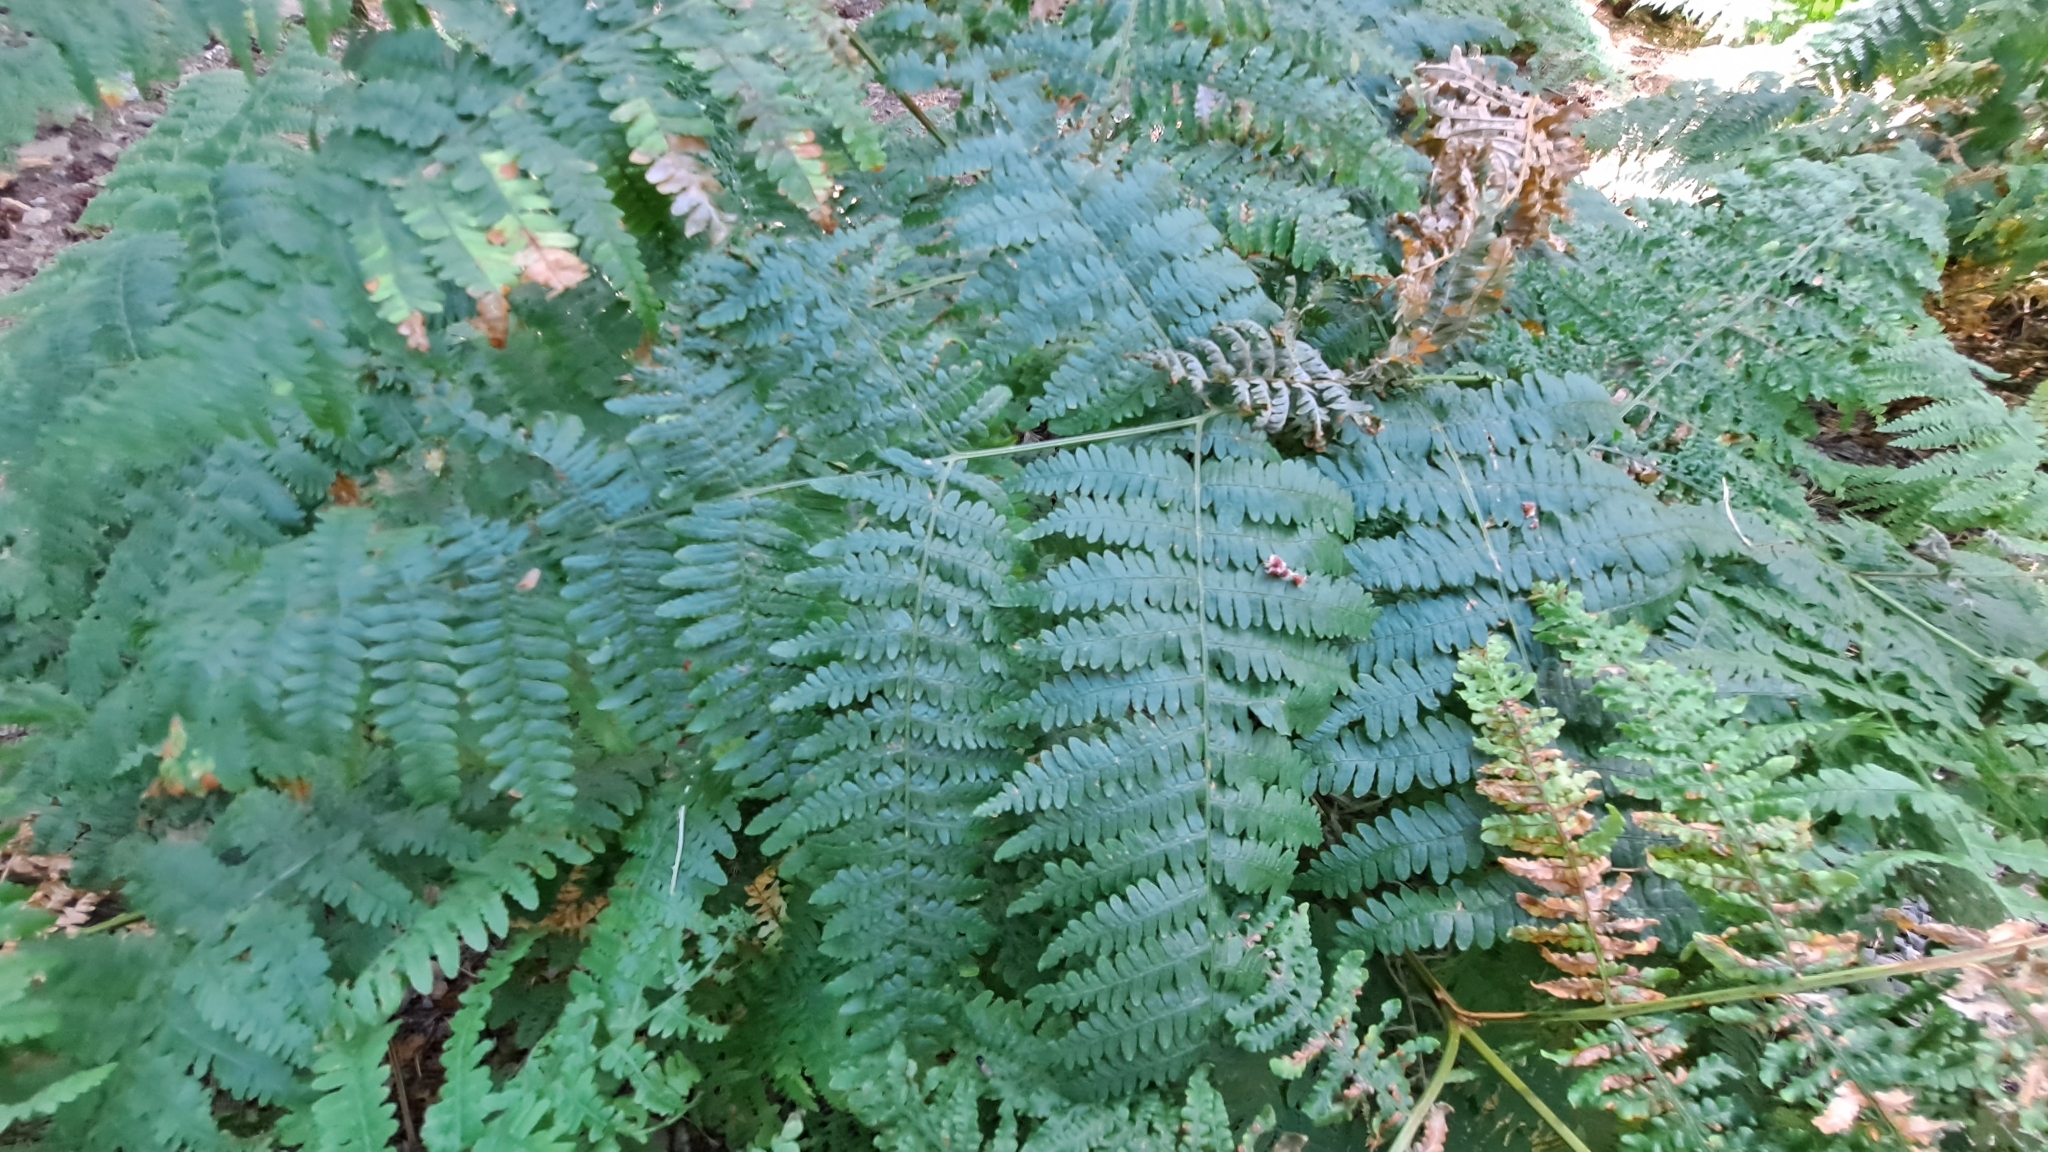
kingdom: Plantae
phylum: Tracheophyta
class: Polypodiopsida
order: Polypodiales
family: Dennstaedtiaceae
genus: Pteridium
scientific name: Pteridium aquilinum
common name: Bracken
